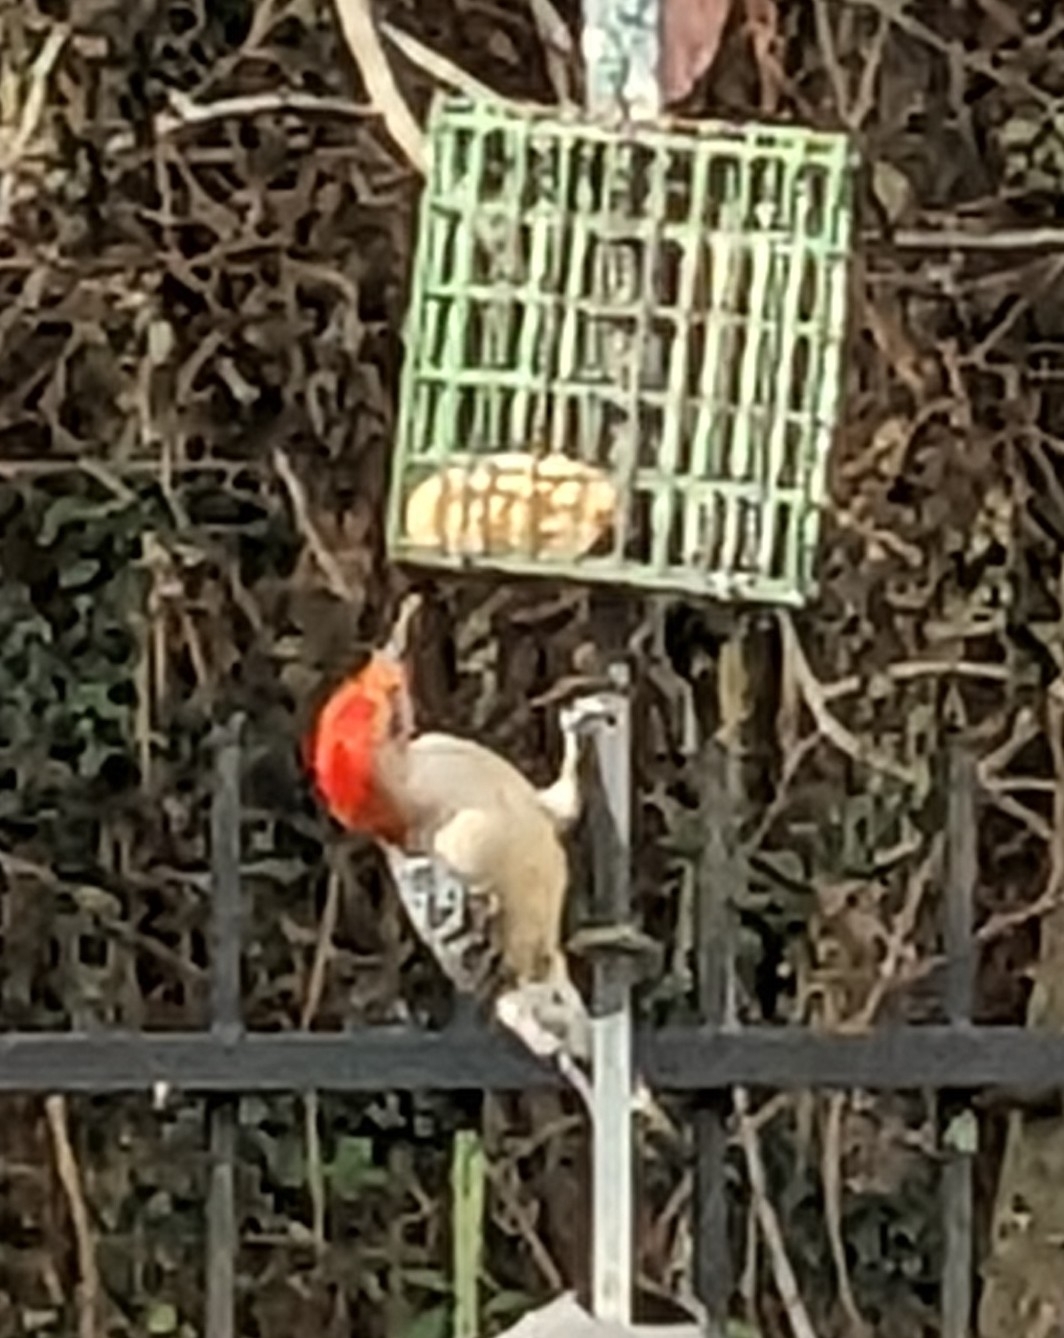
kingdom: Animalia
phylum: Chordata
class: Aves
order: Piciformes
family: Picidae
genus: Melanerpes
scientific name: Melanerpes carolinus
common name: Red-bellied woodpecker
